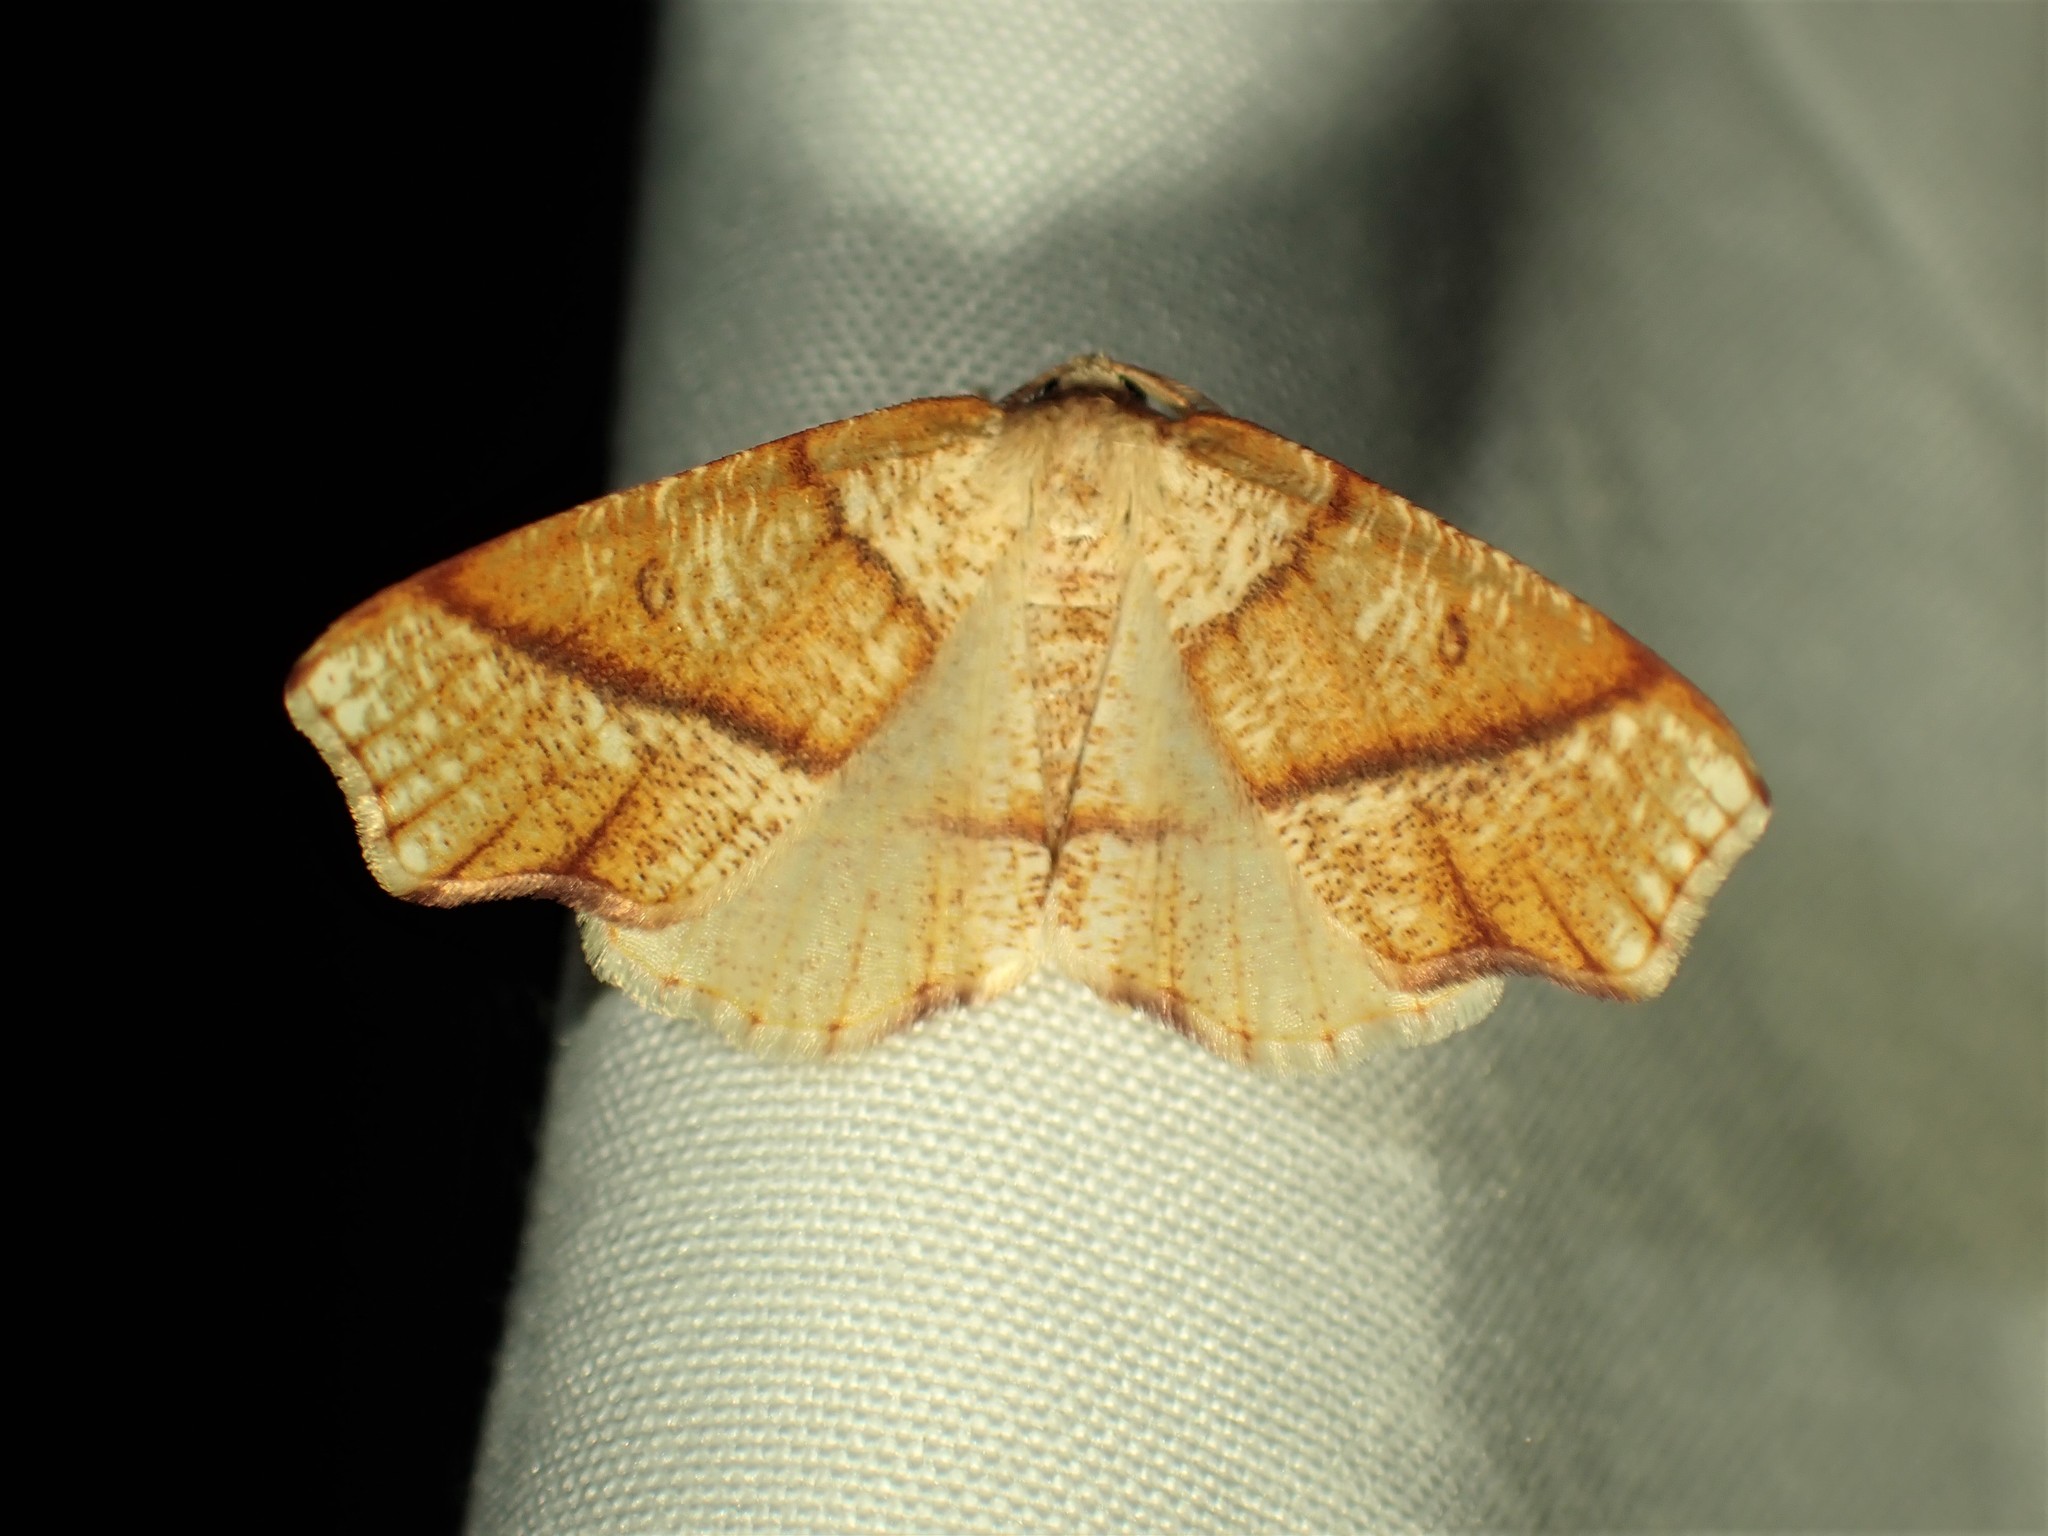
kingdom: Animalia
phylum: Arthropoda
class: Insecta
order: Lepidoptera
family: Geometridae
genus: Plagodis
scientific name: Plagodis alcoolaria
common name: Hollow-spotted plagodis
